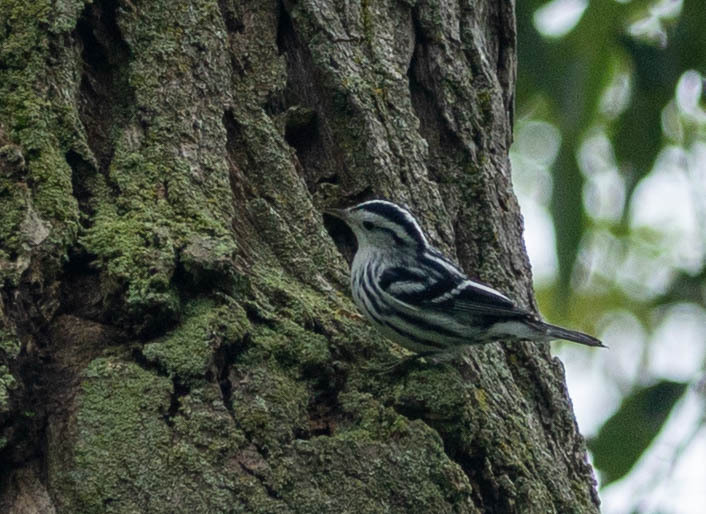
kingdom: Animalia
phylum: Chordata
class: Aves
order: Passeriformes
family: Parulidae
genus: Mniotilta
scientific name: Mniotilta varia
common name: Black-and-white warbler
